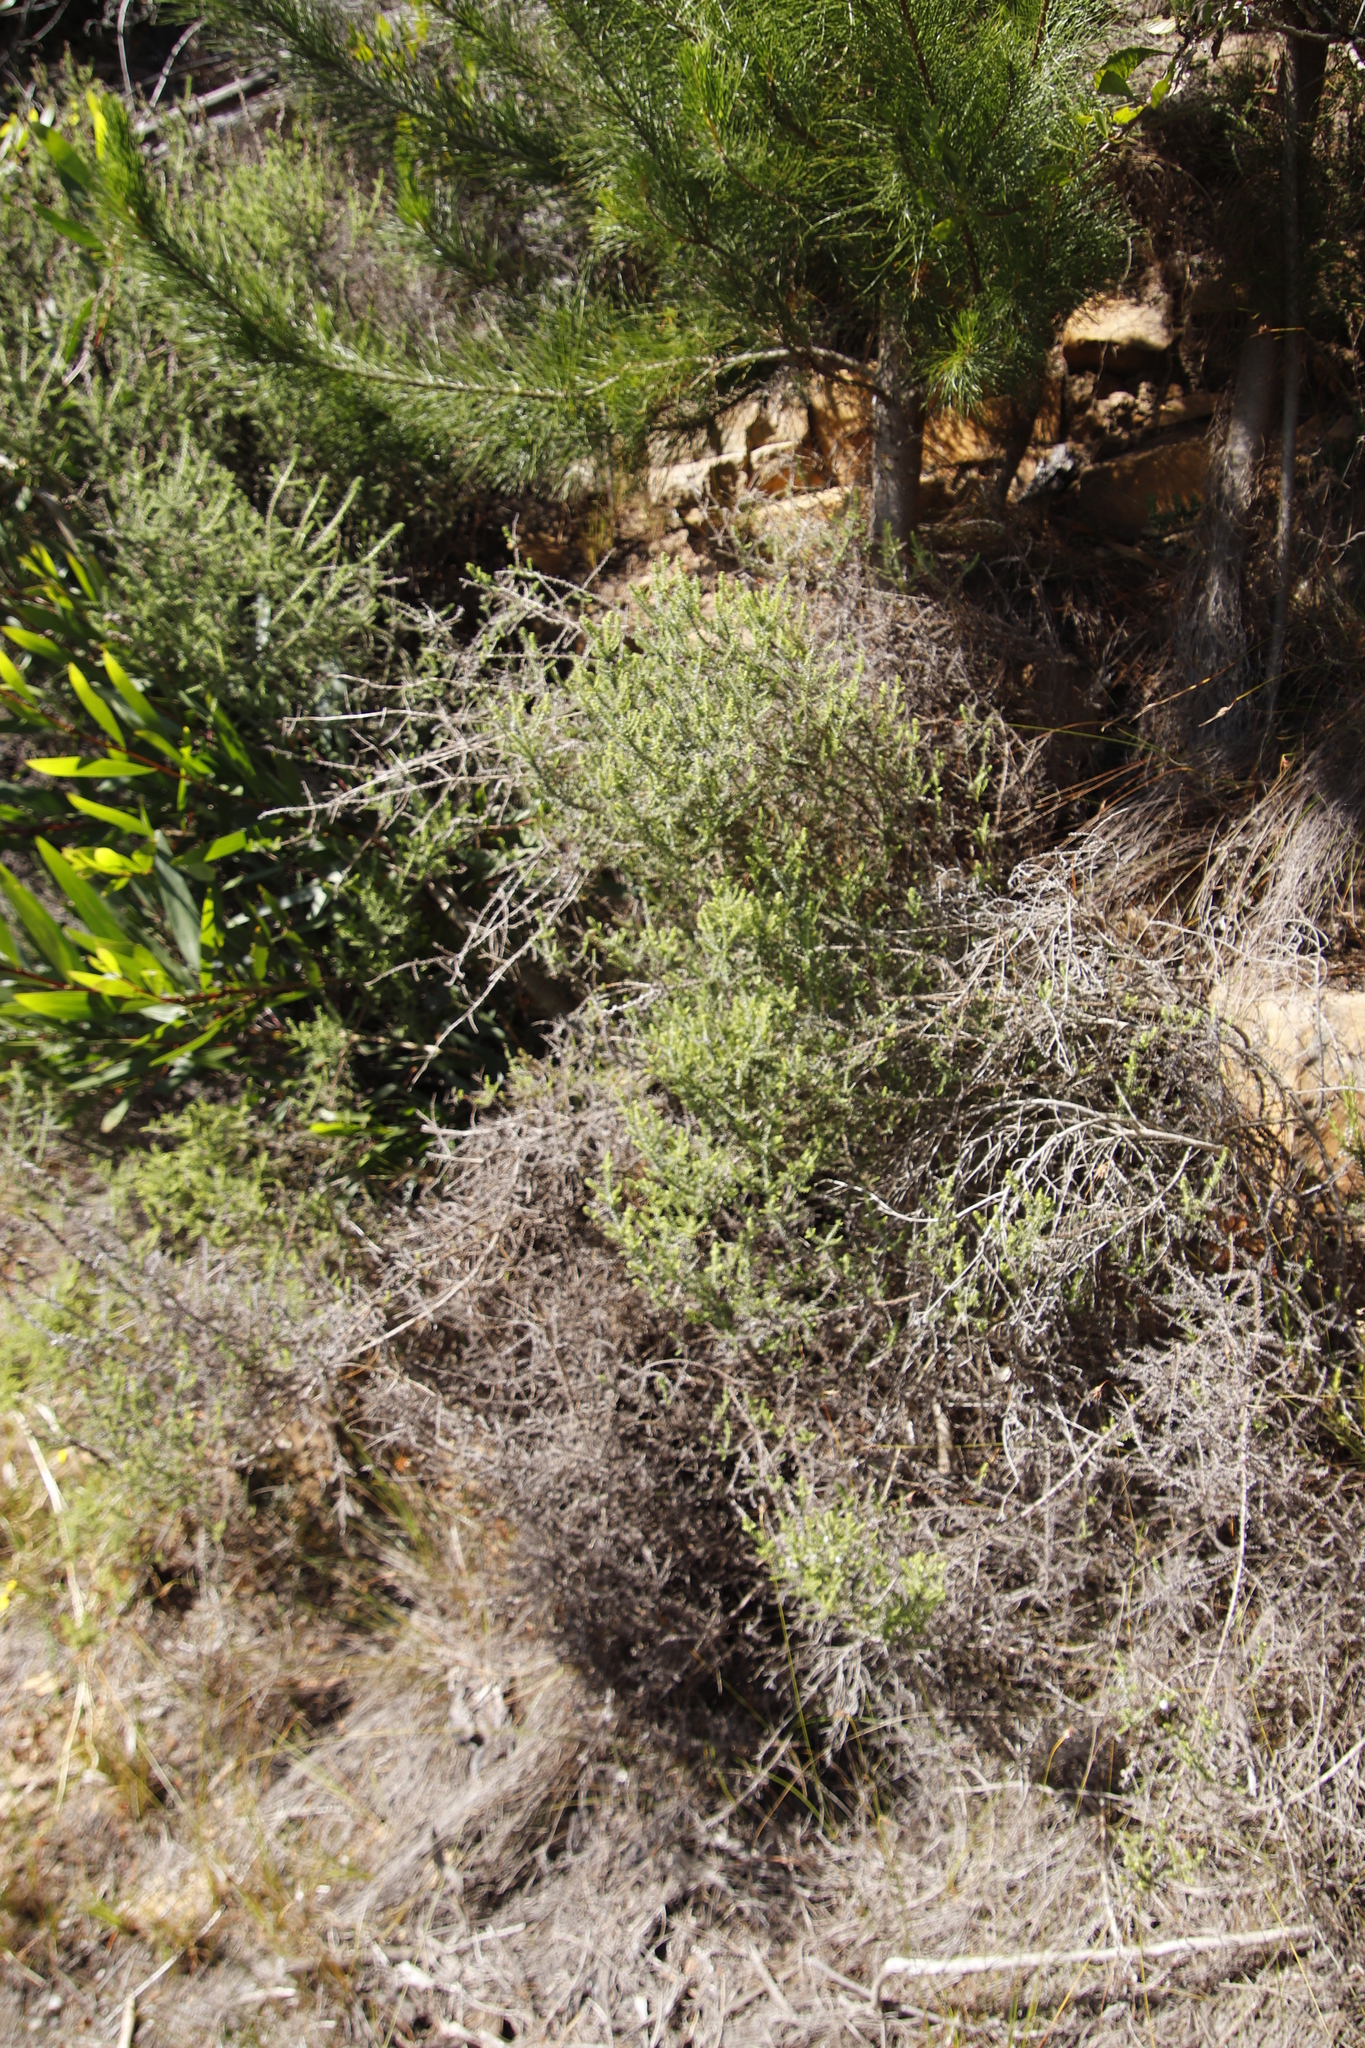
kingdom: Plantae
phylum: Tracheophyta
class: Magnoliopsida
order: Asterales
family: Asteraceae
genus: Seriphium
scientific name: Seriphium cinereum
